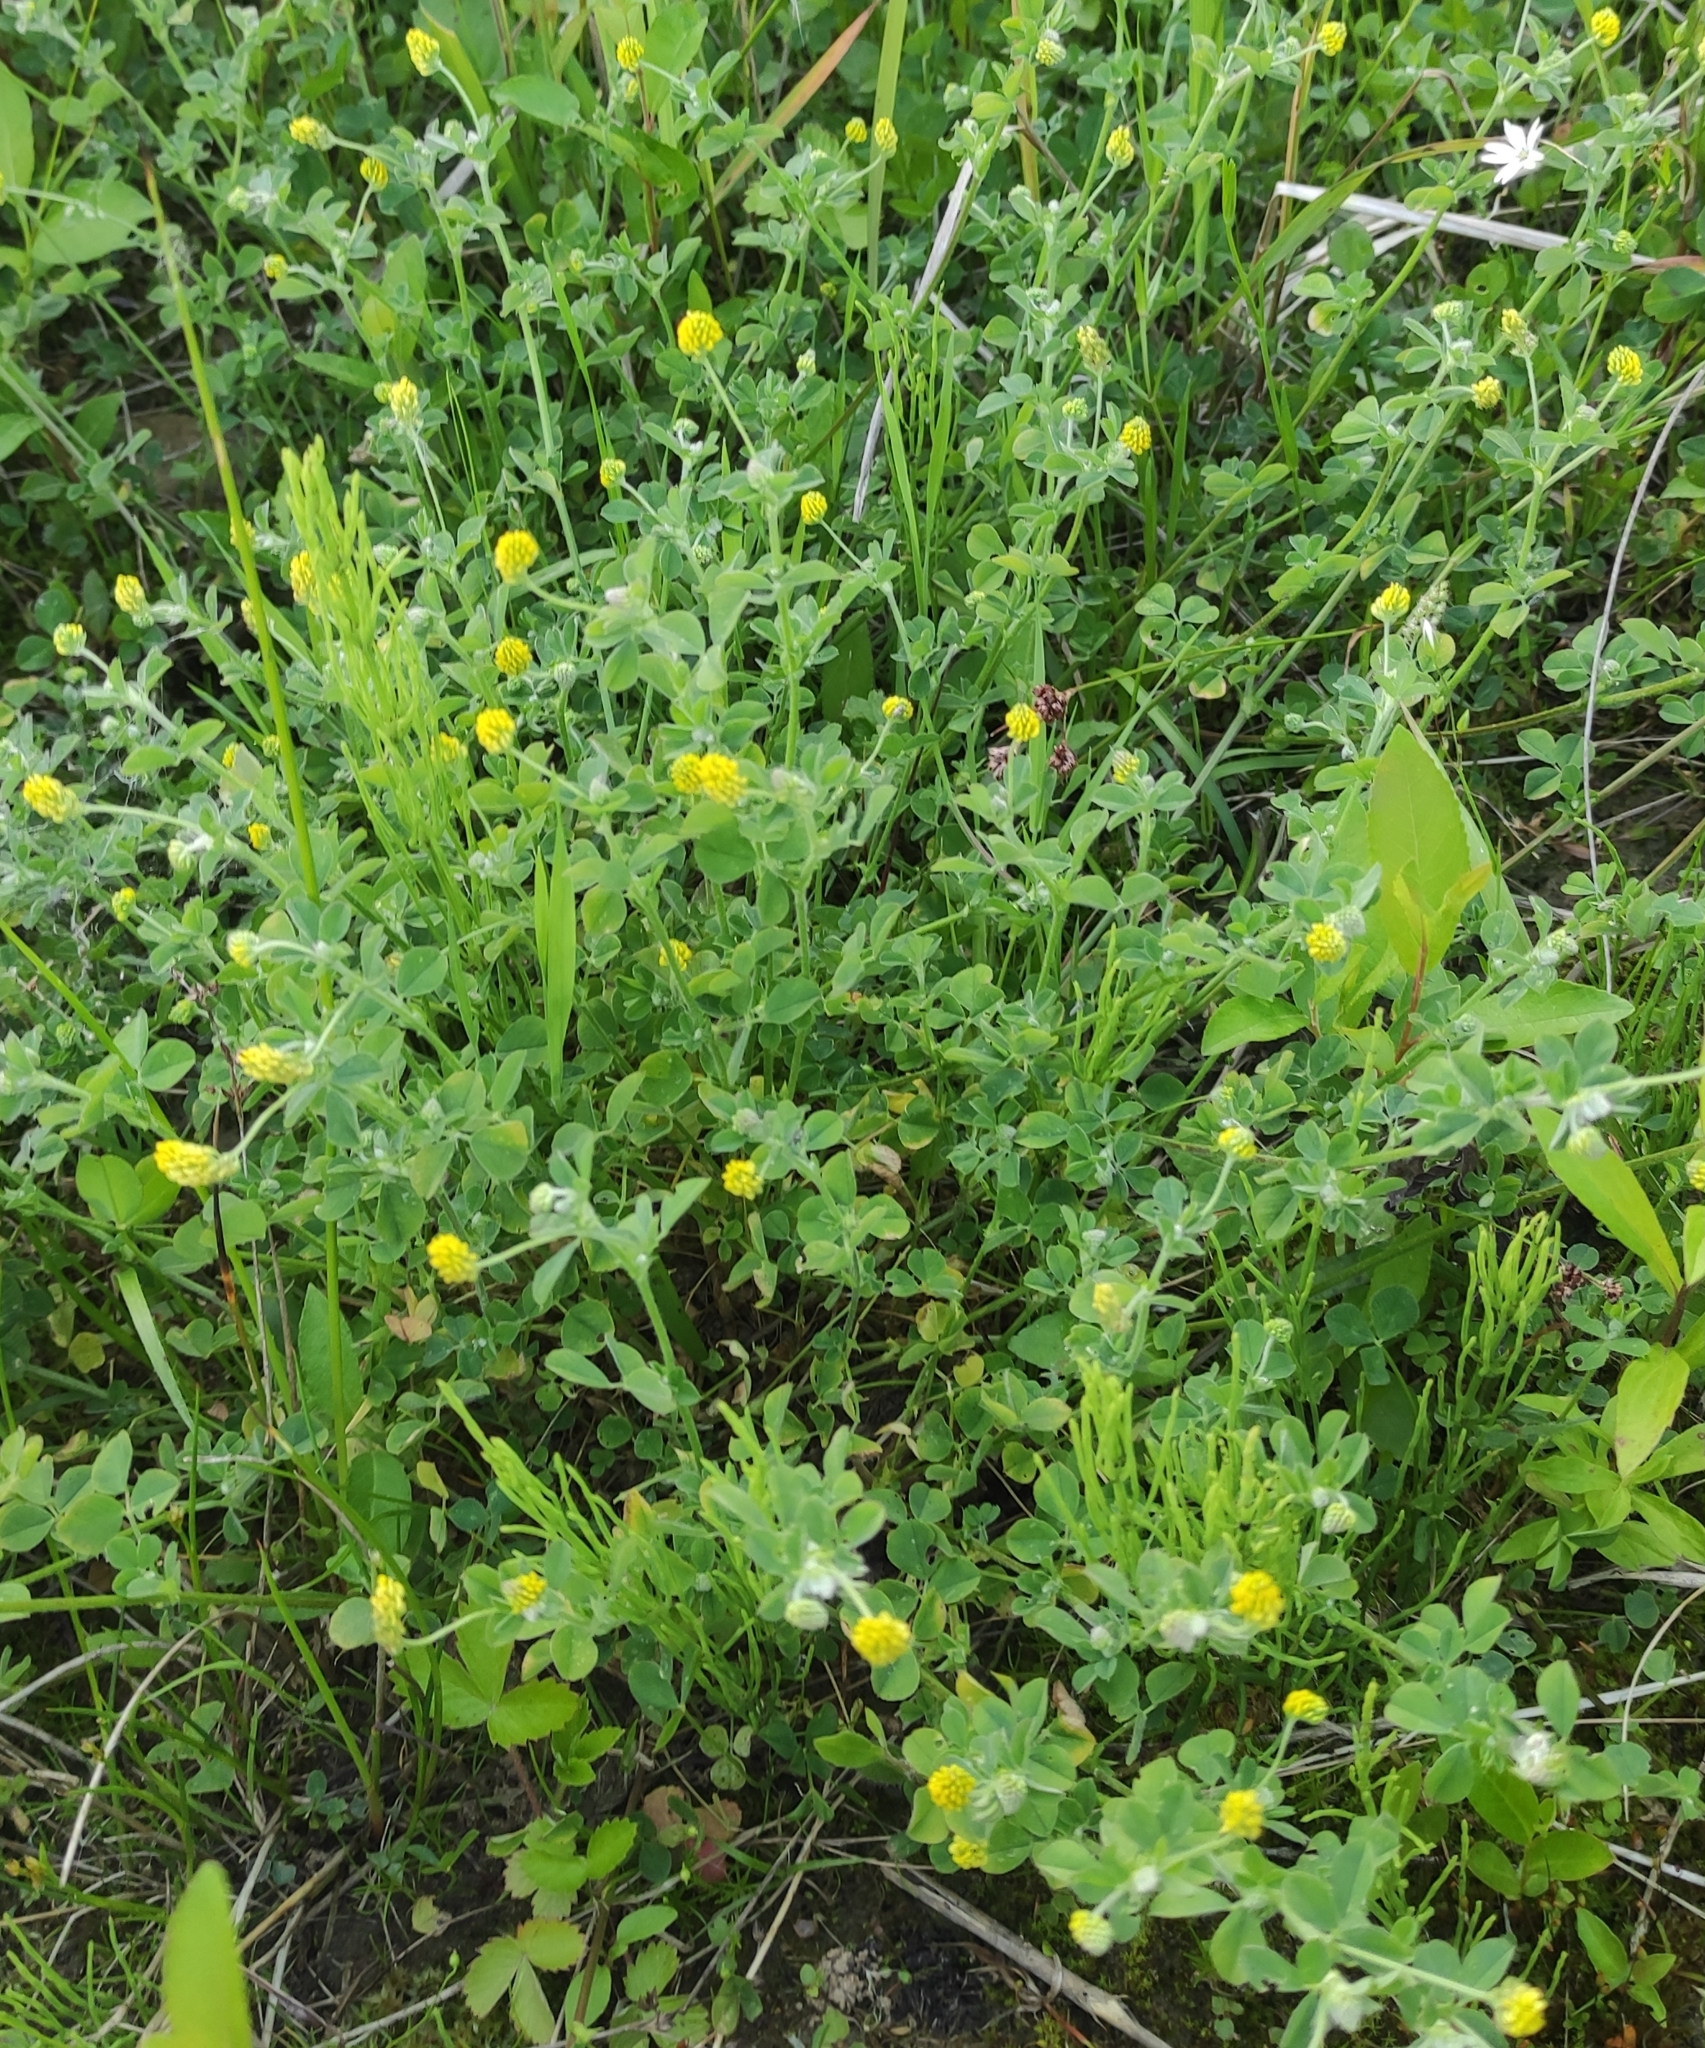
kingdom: Plantae
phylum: Tracheophyta
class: Magnoliopsida
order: Fabales
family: Fabaceae
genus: Medicago
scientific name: Medicago lupulina
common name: Black medick
